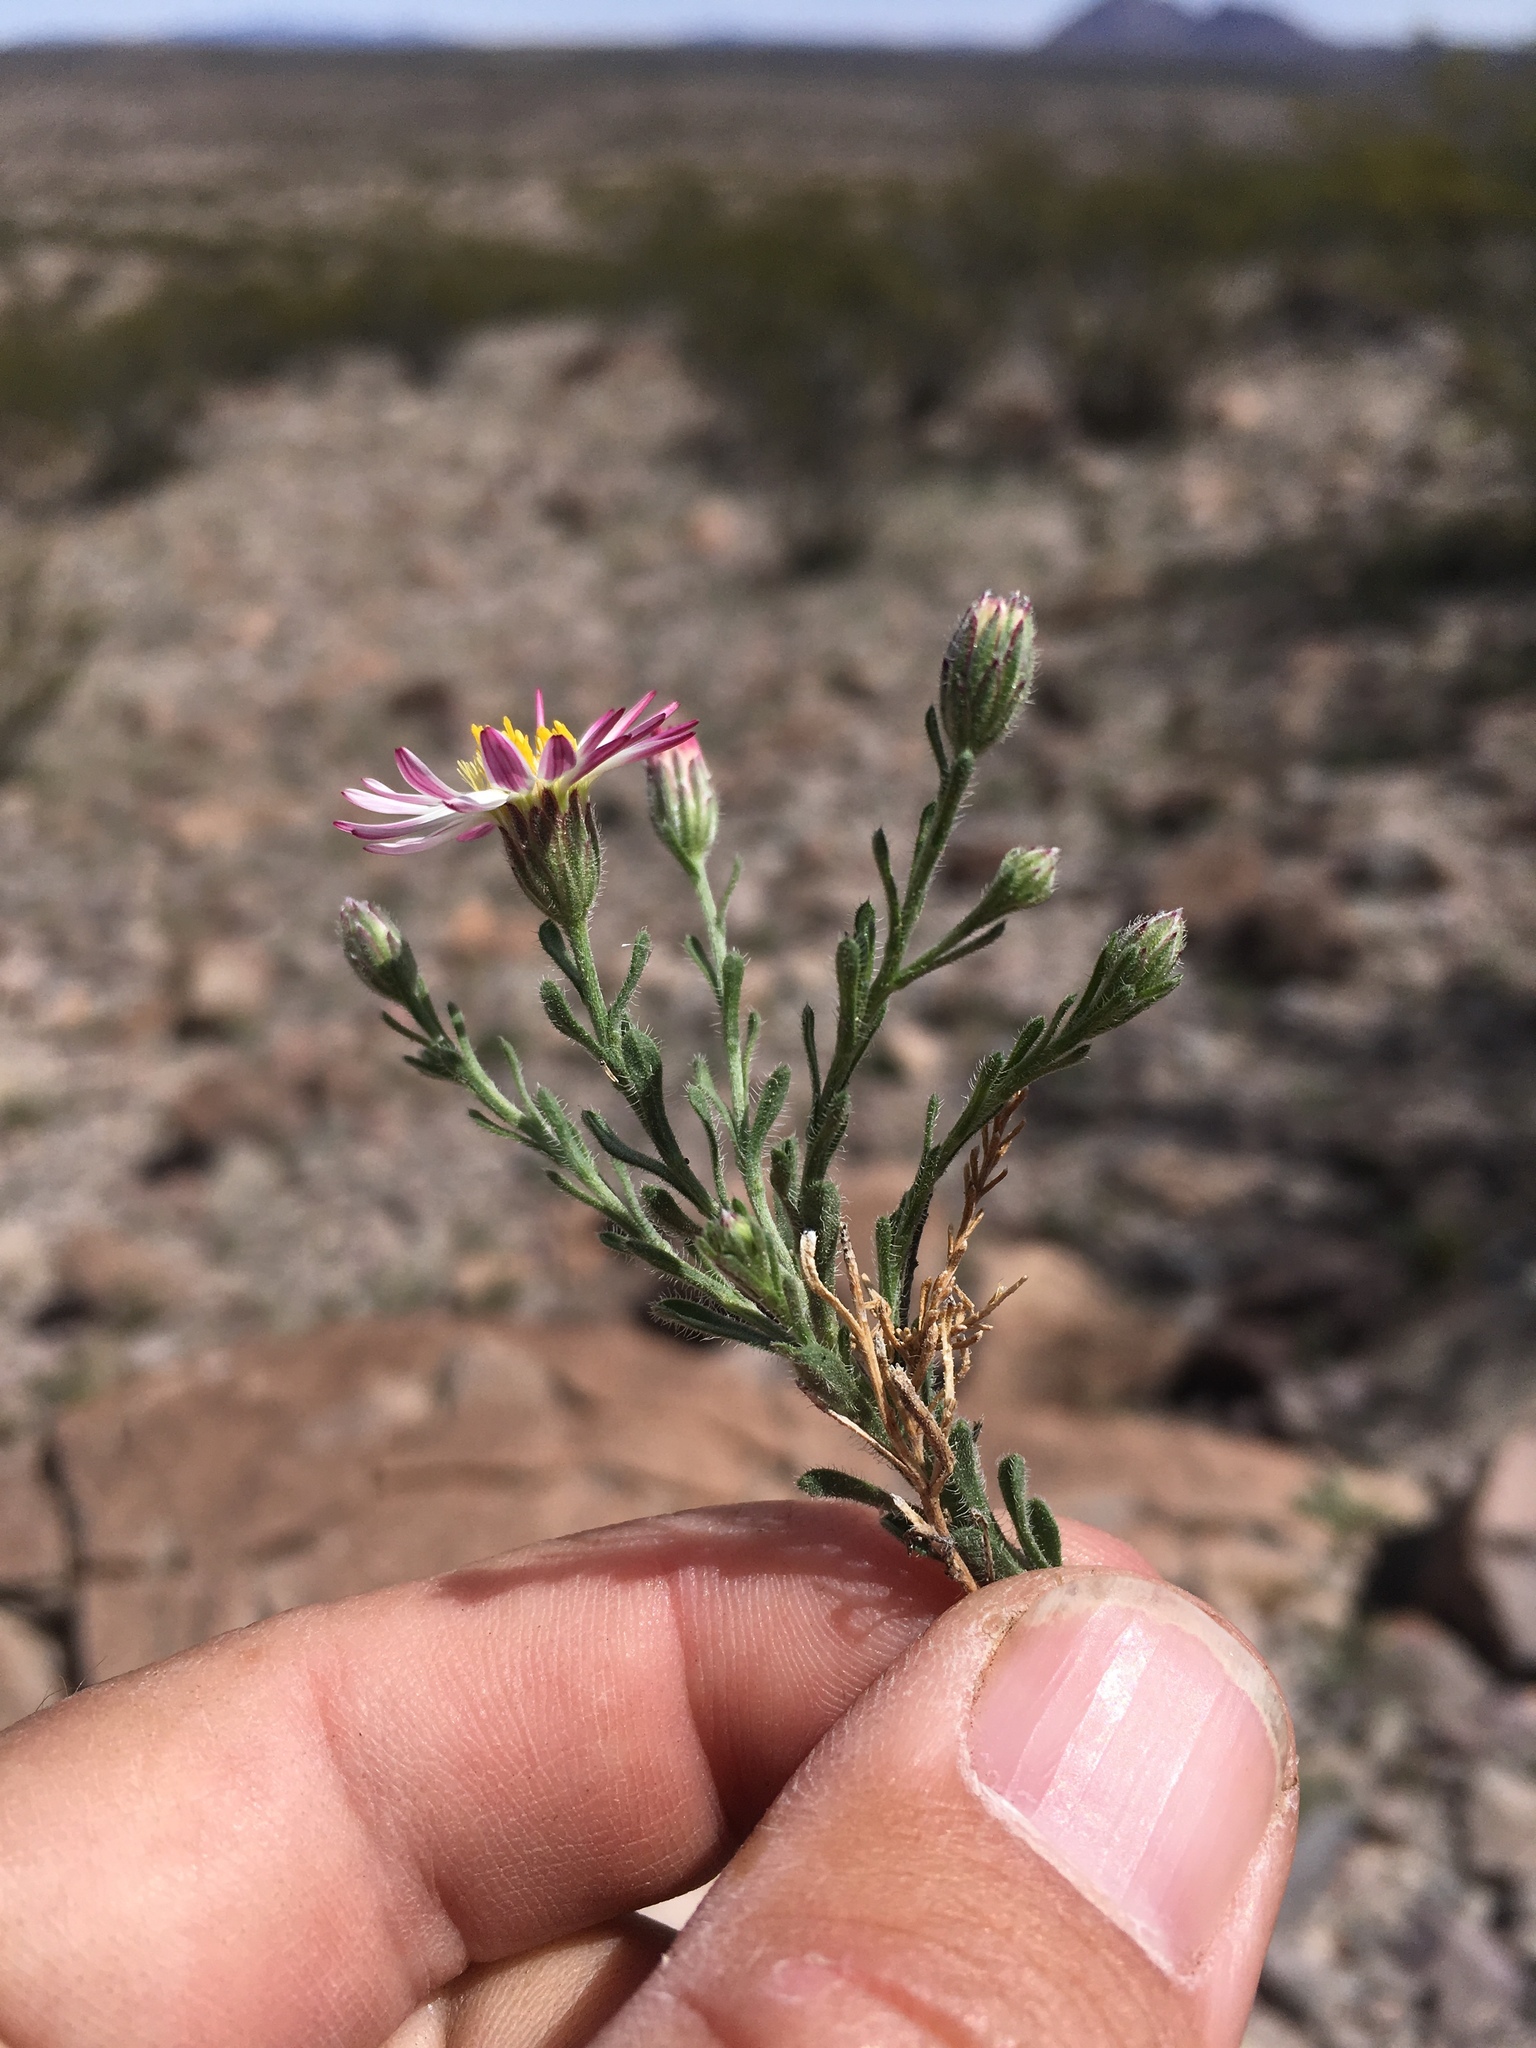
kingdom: Plantae
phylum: Tracheophyta
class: Magnoliopsida
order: Asterales
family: Asteraceae
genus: Chaetopappa
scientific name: Chaetopappa ericoides
